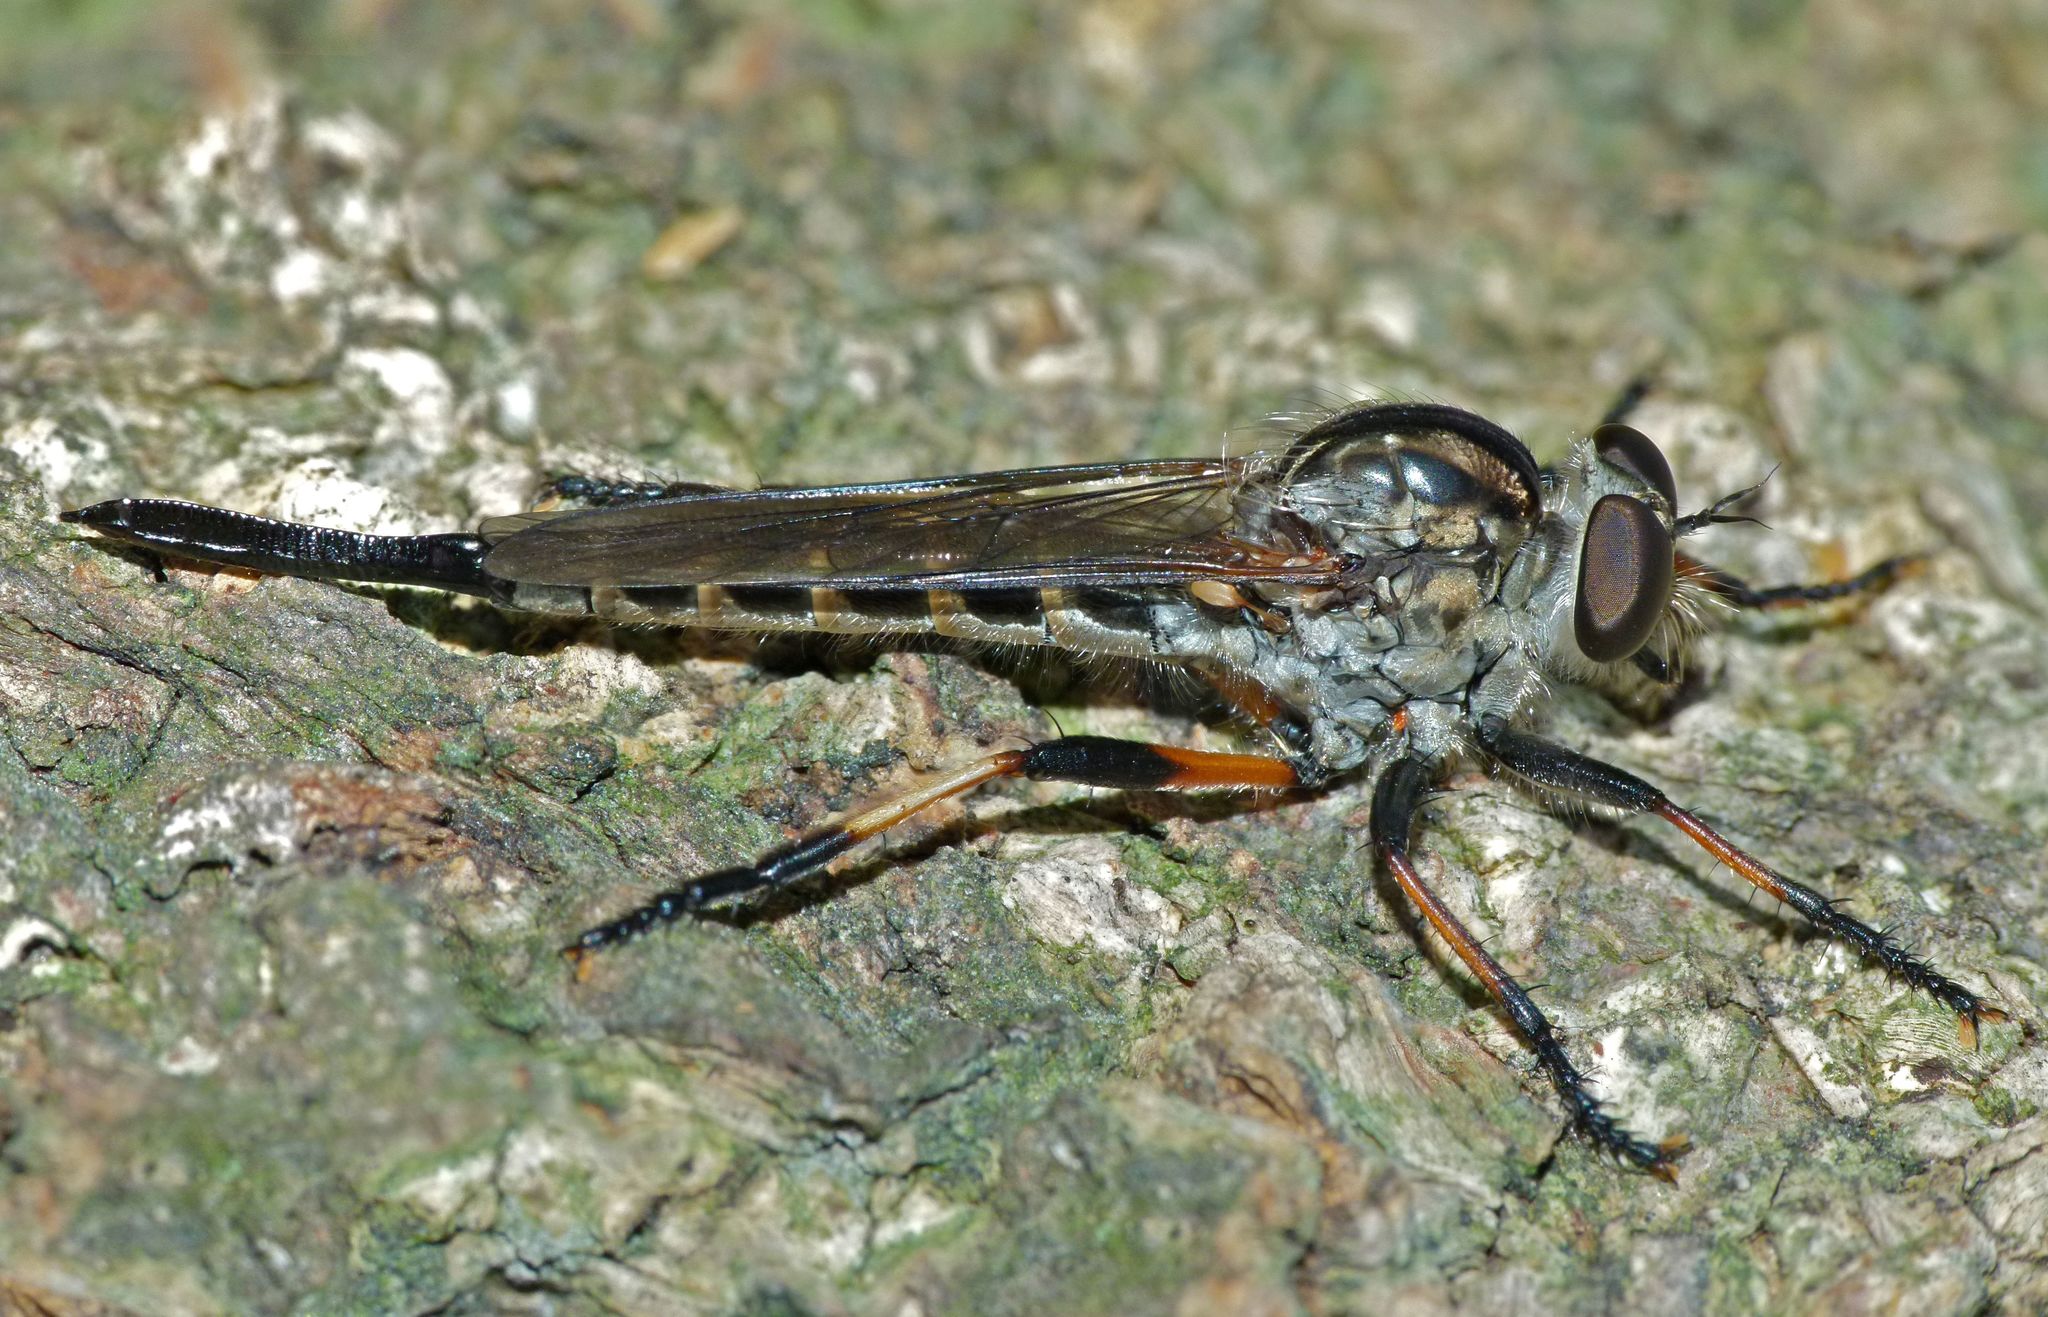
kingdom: Animalia
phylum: Arthropoda
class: Insecta
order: Diptera
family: Asilidae
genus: Cerdistus
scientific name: Cerdistus fuscipennis
